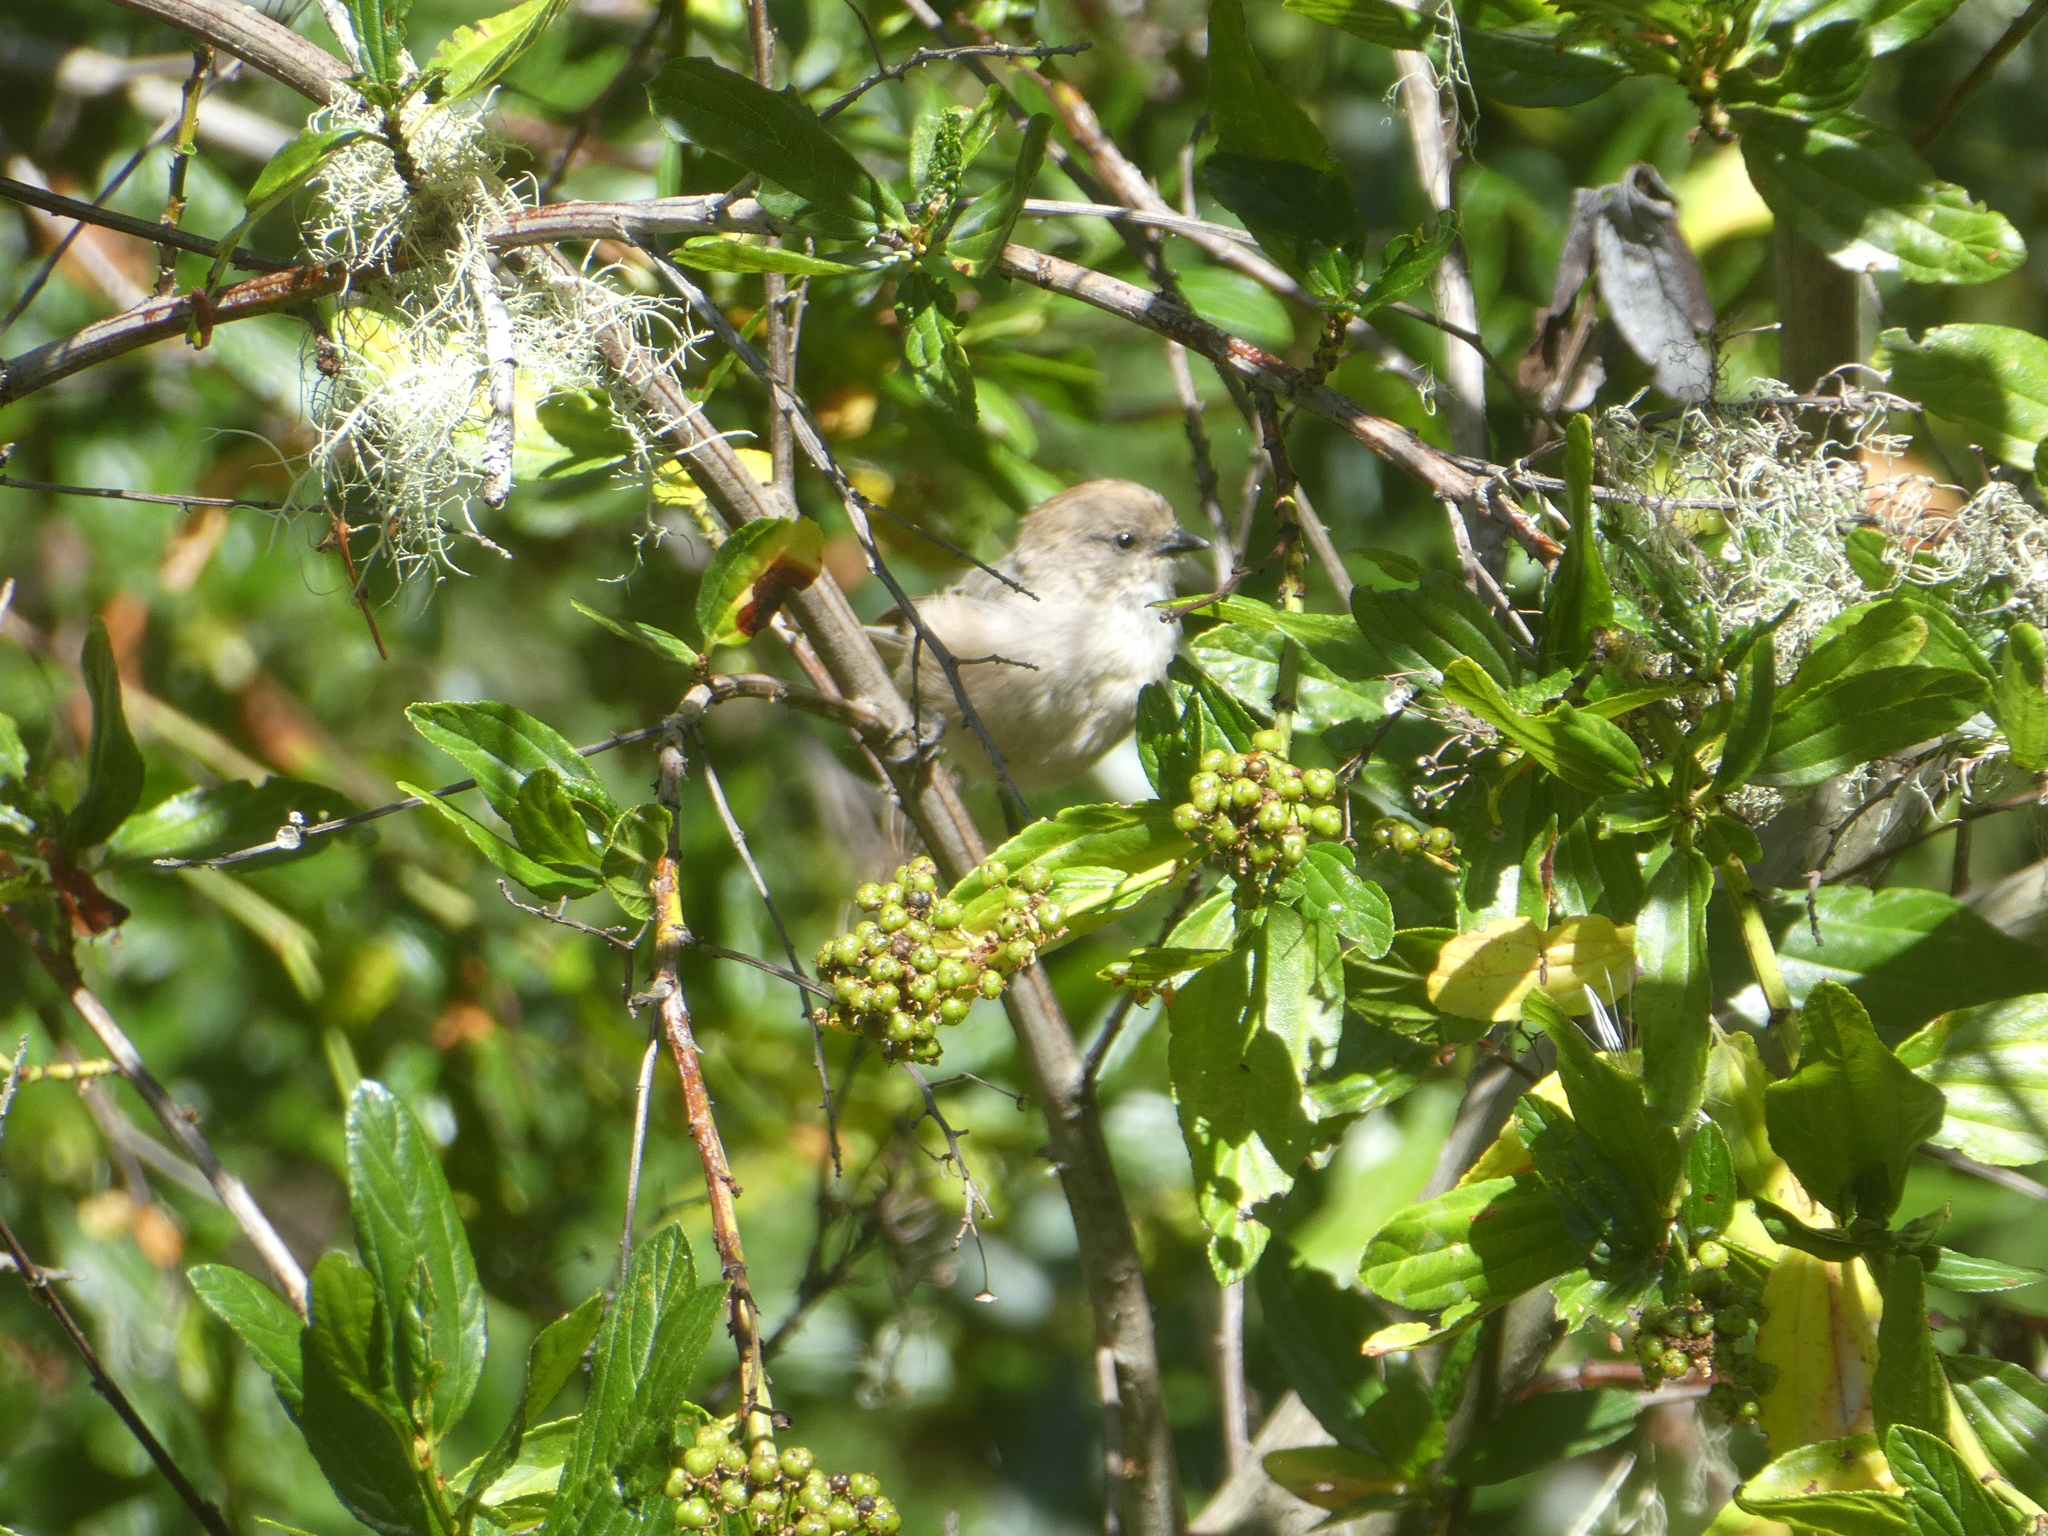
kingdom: Animalia
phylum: Chordata
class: Aves
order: Passeriformes
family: Aegithalidae
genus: Psaltriparus
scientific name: Psaltriparus minimus
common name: American bushtit
